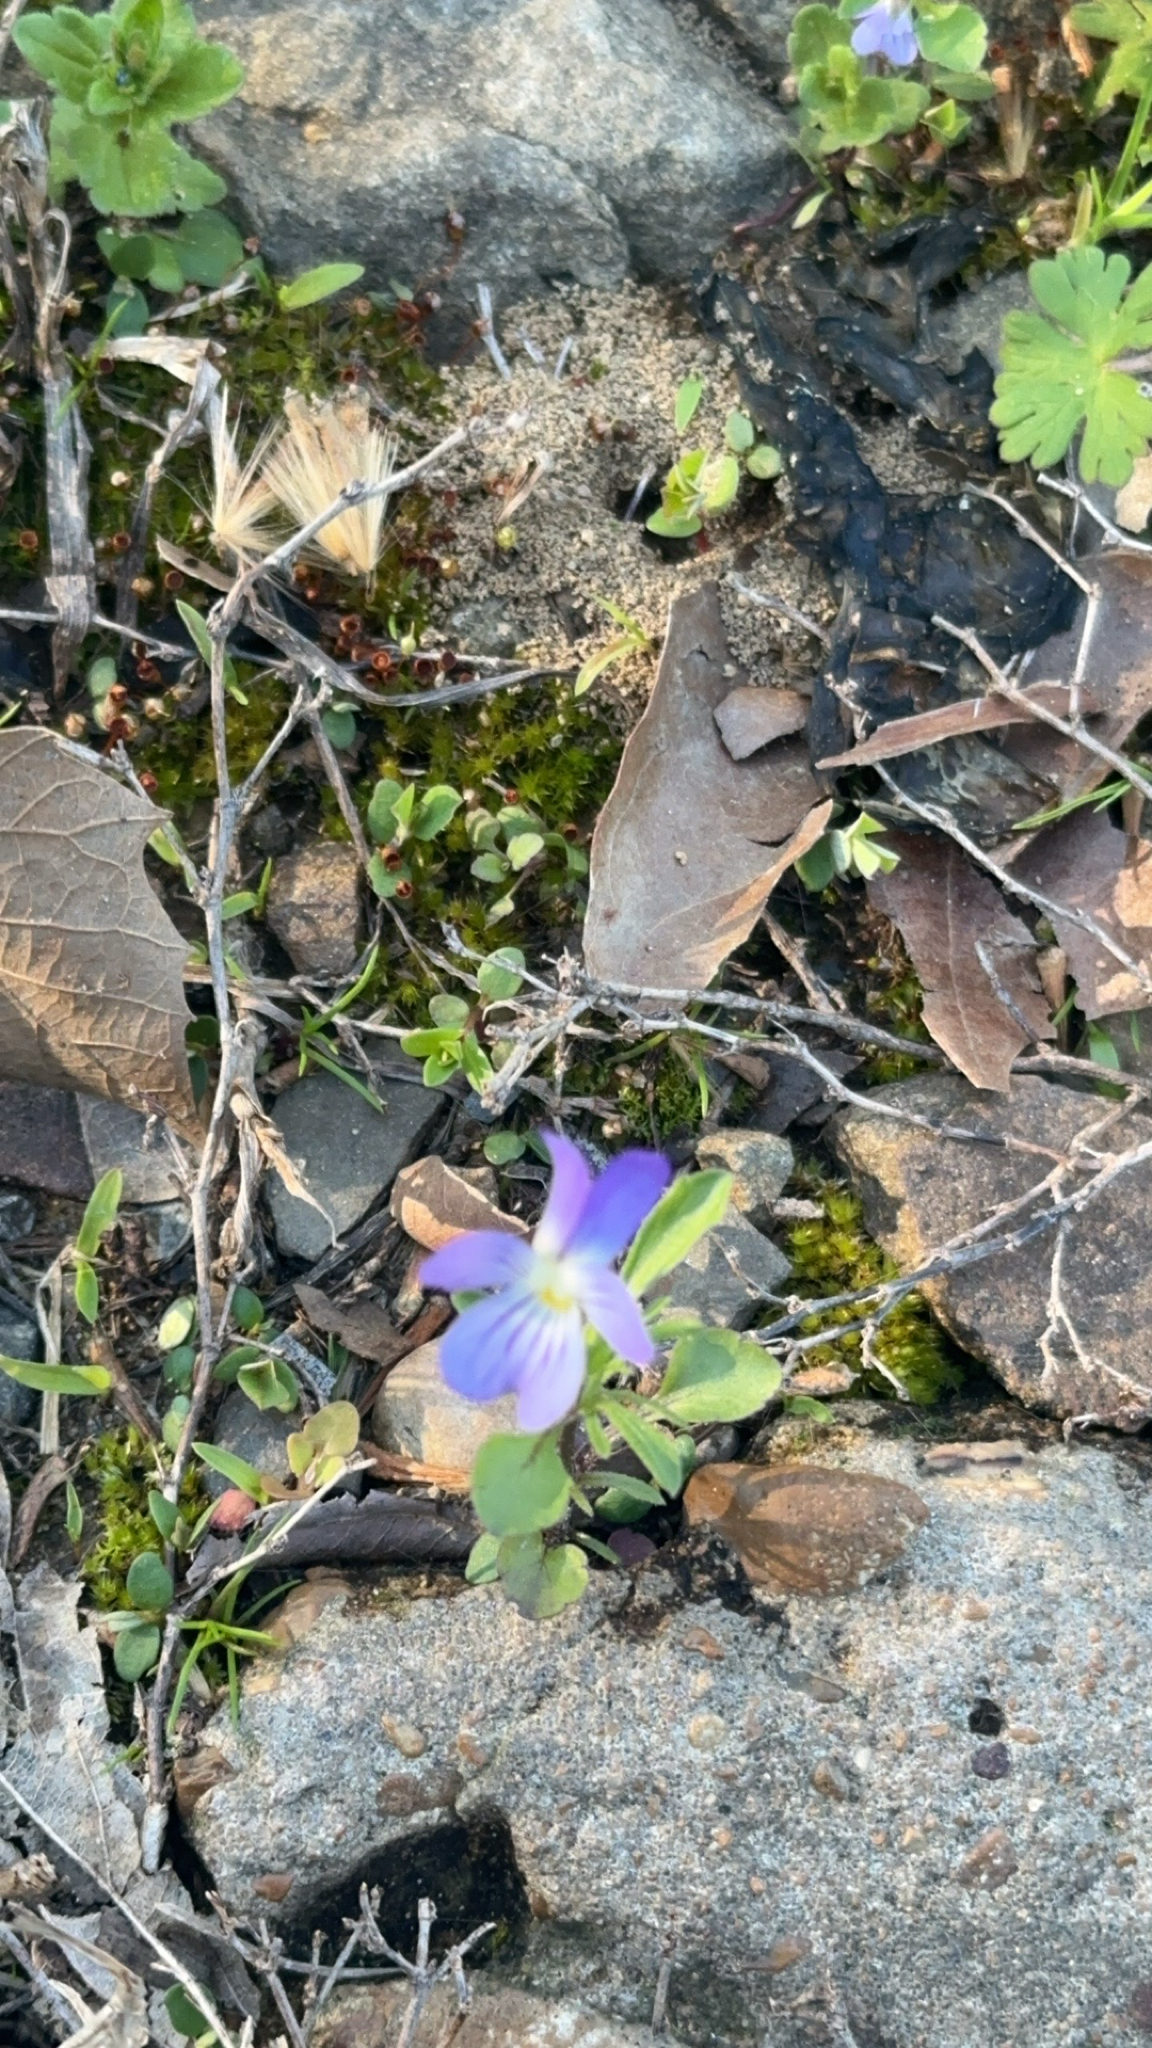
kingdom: Plantae
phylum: Tracheophyta
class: Magnoliopsida
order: Malpighiales
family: Violaceae
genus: Viola
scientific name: Viola rafinesquei
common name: American field pansy
